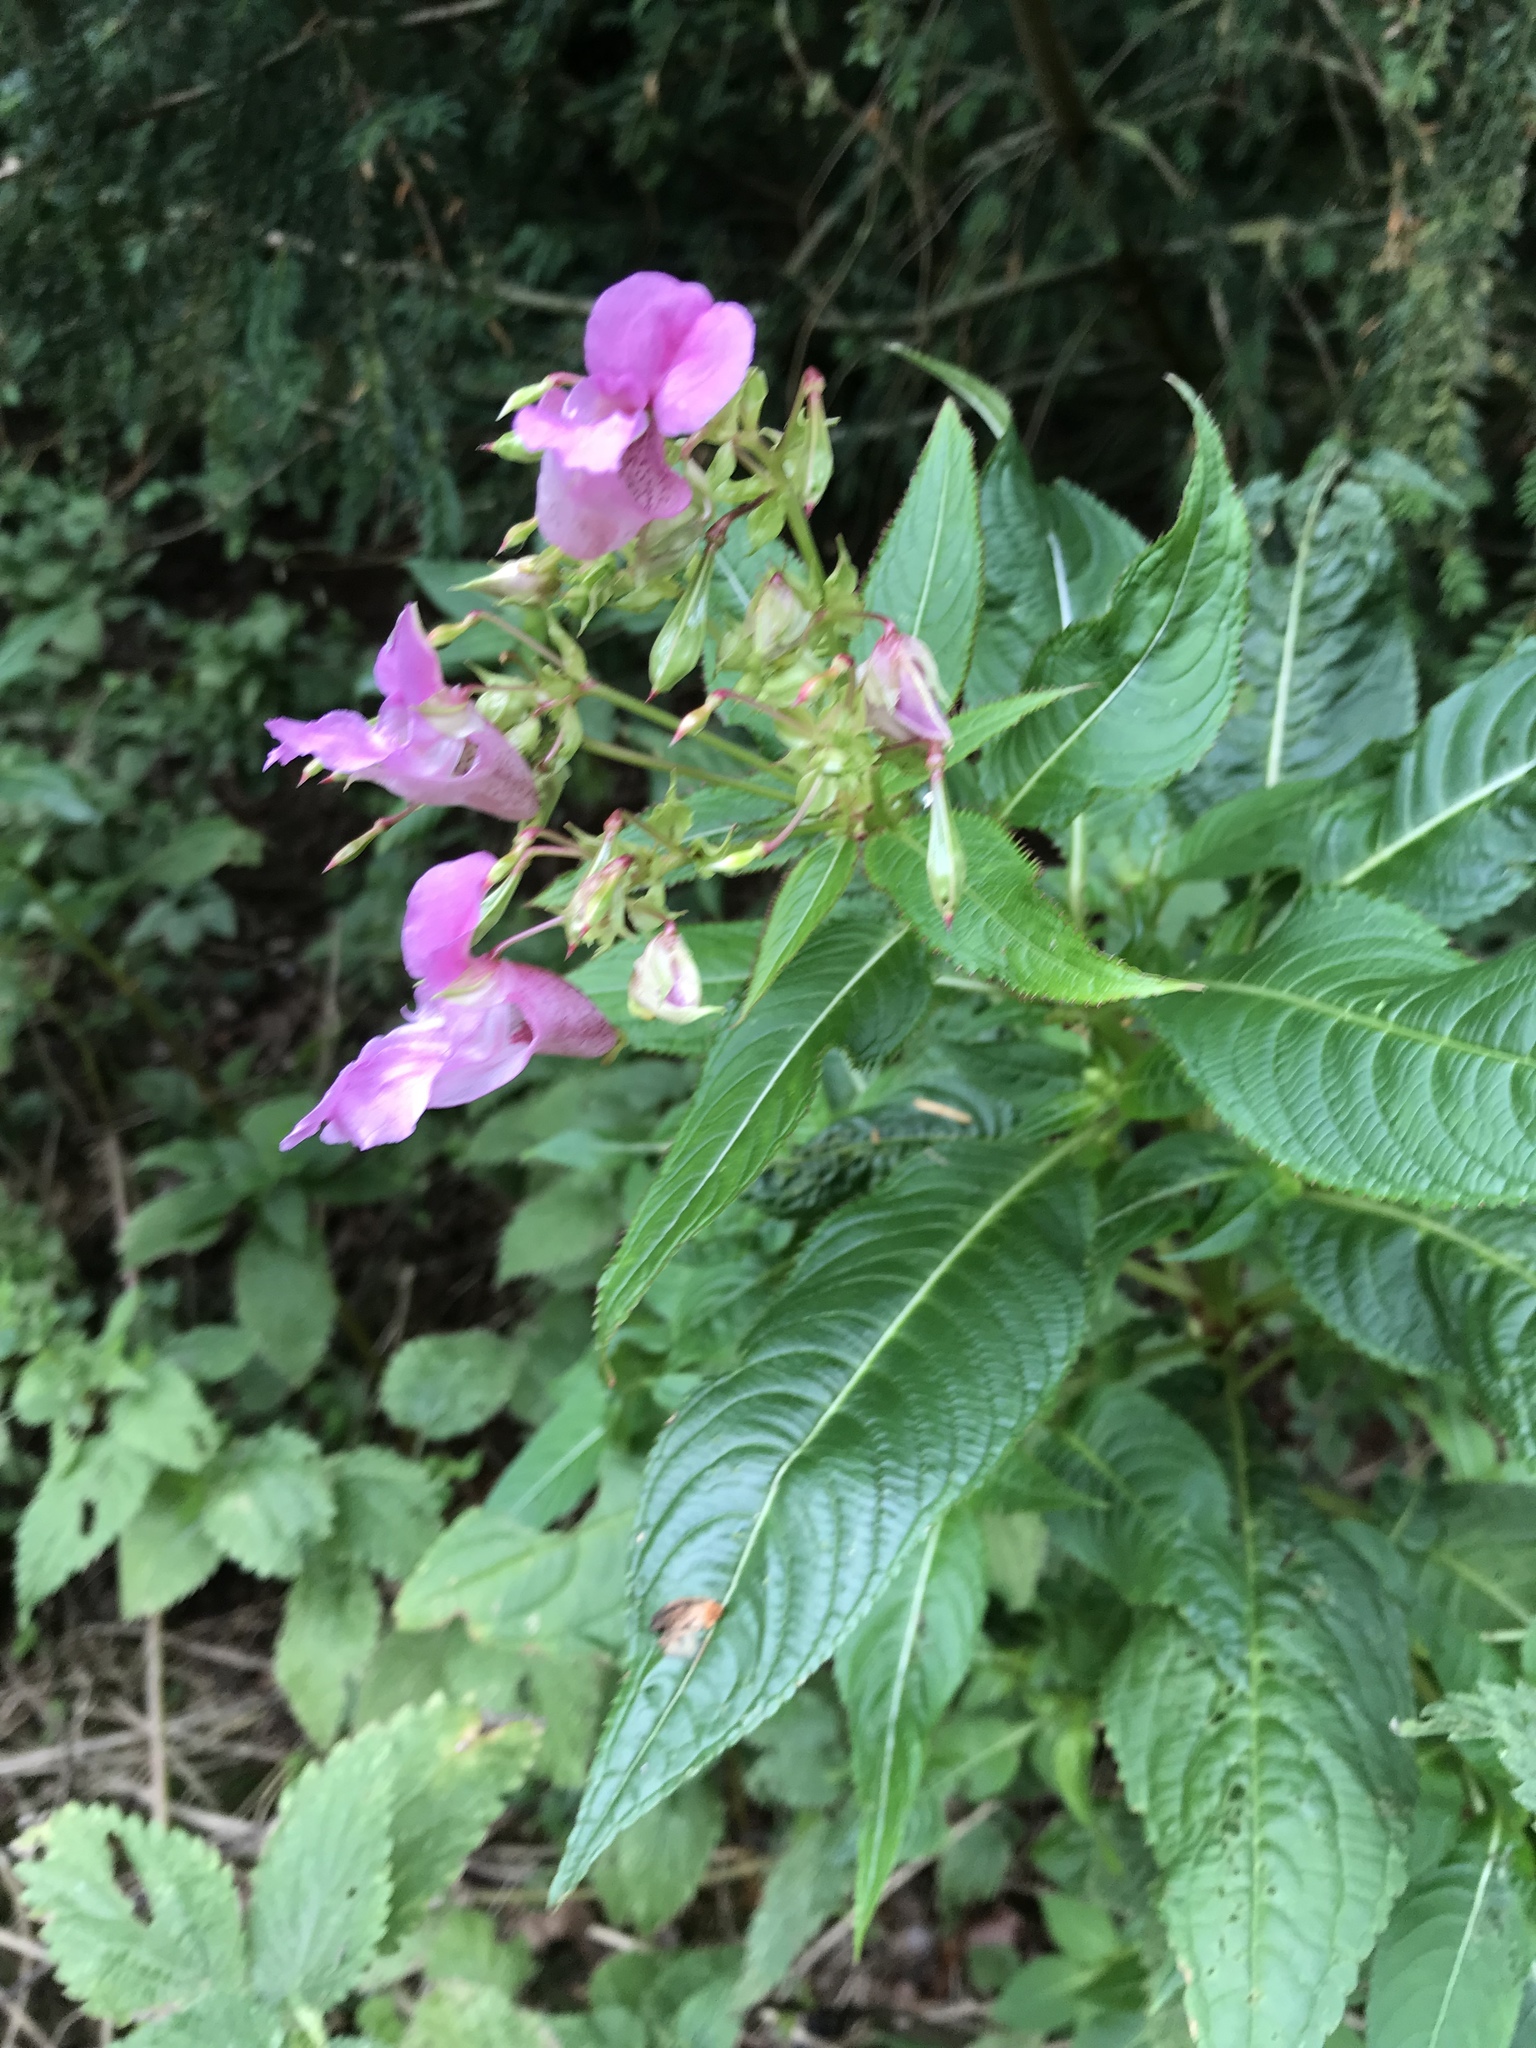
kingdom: Plantae
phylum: Tracheophyta
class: Magnoliopsida
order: Ericales
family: Balsaminaceae
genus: Impatiens
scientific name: Impatiens glandulifera
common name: Himalayan balsam
